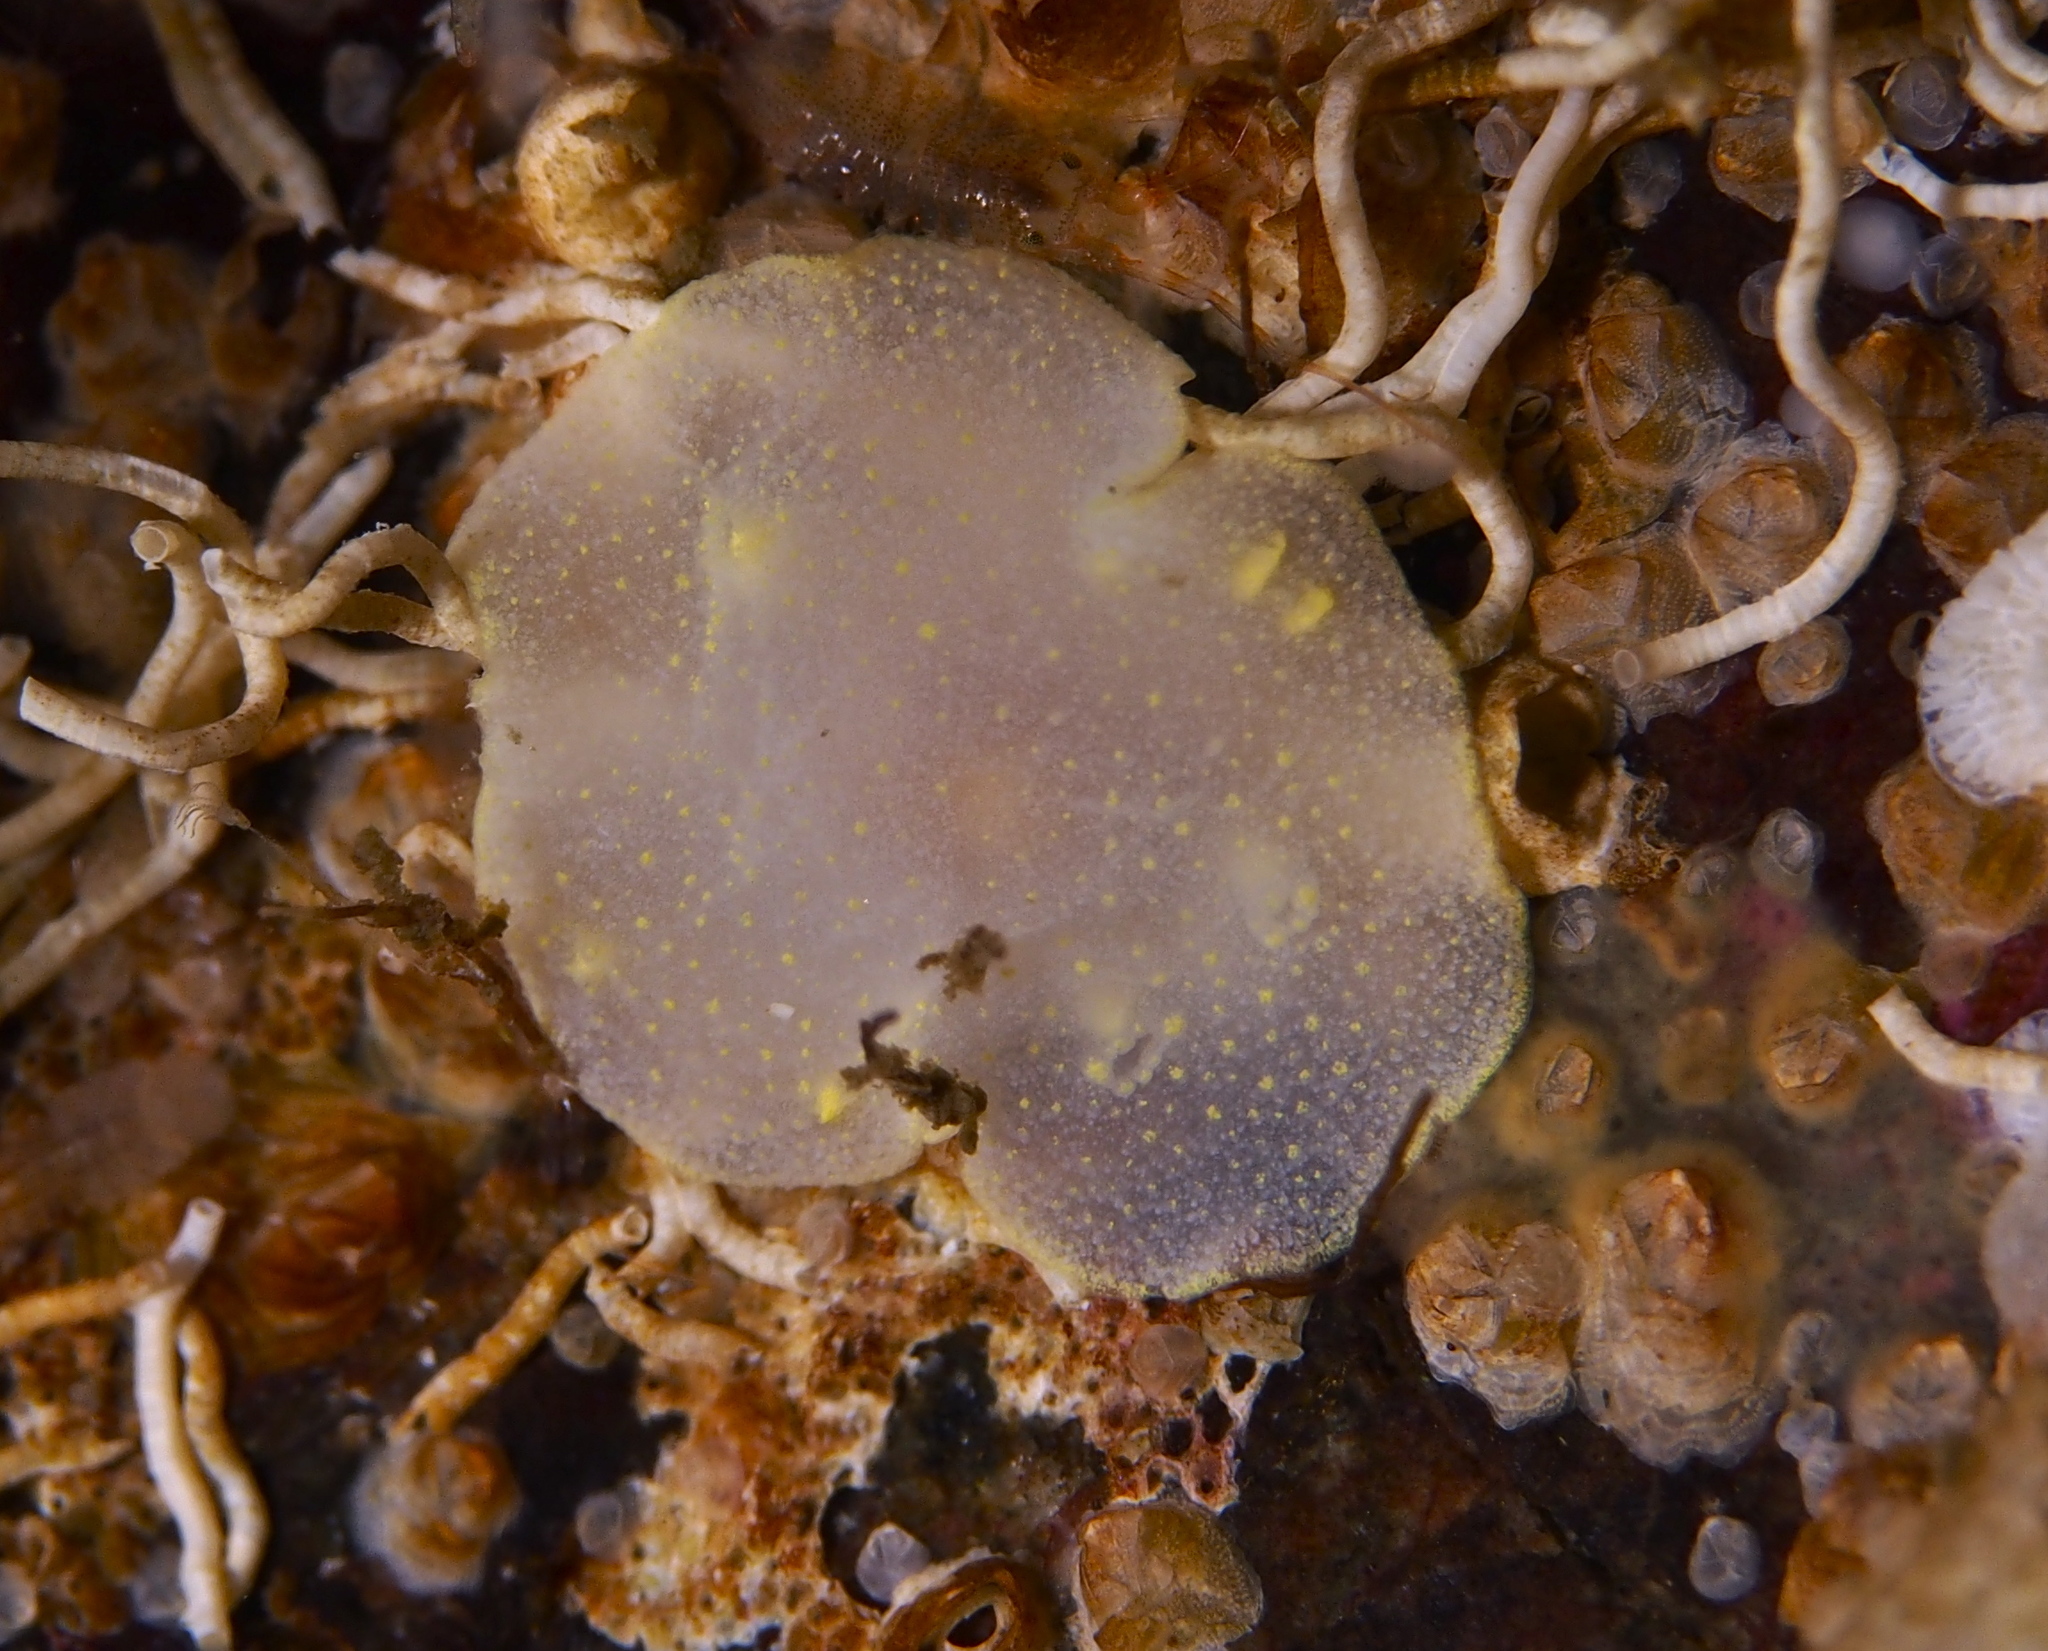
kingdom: Animalia
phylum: Mollusca
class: Gastropoda
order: Nudibranchia
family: Cadlinidae
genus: Cadlina
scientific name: Cadlina laevis
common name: White atlantic cadlina
